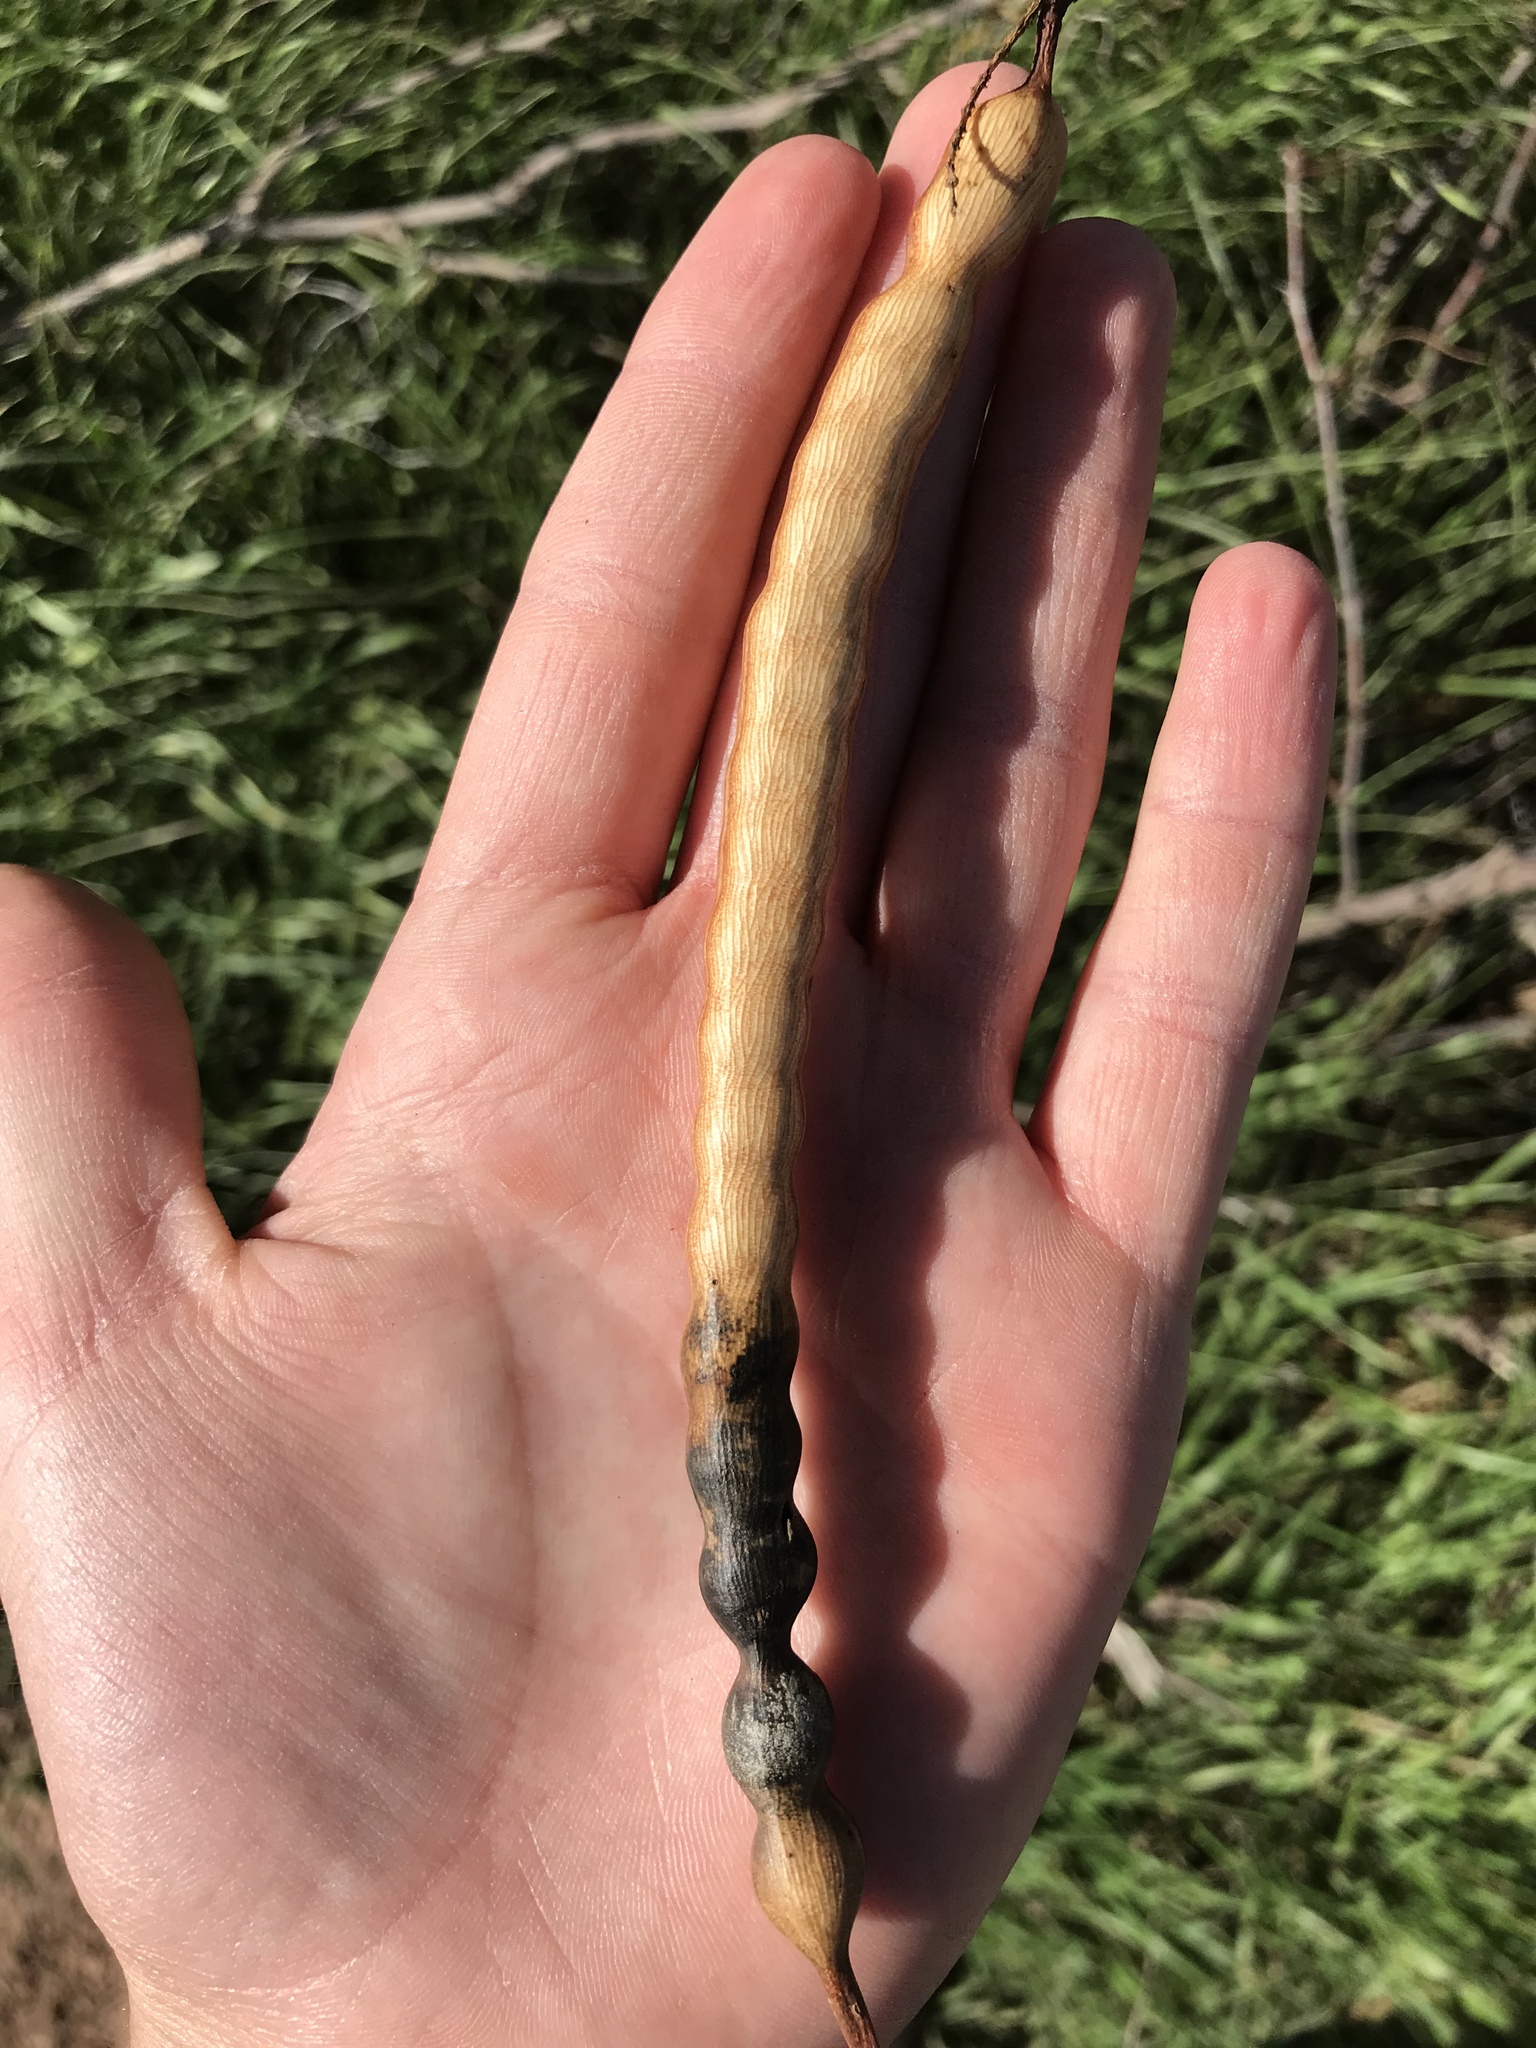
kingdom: Plantae
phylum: Tracheophyta
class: Magnoliopsida
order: Fabales
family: Fabaceae
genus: Prosopis
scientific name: Prosopis glandulosa
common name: Honey mesquite
